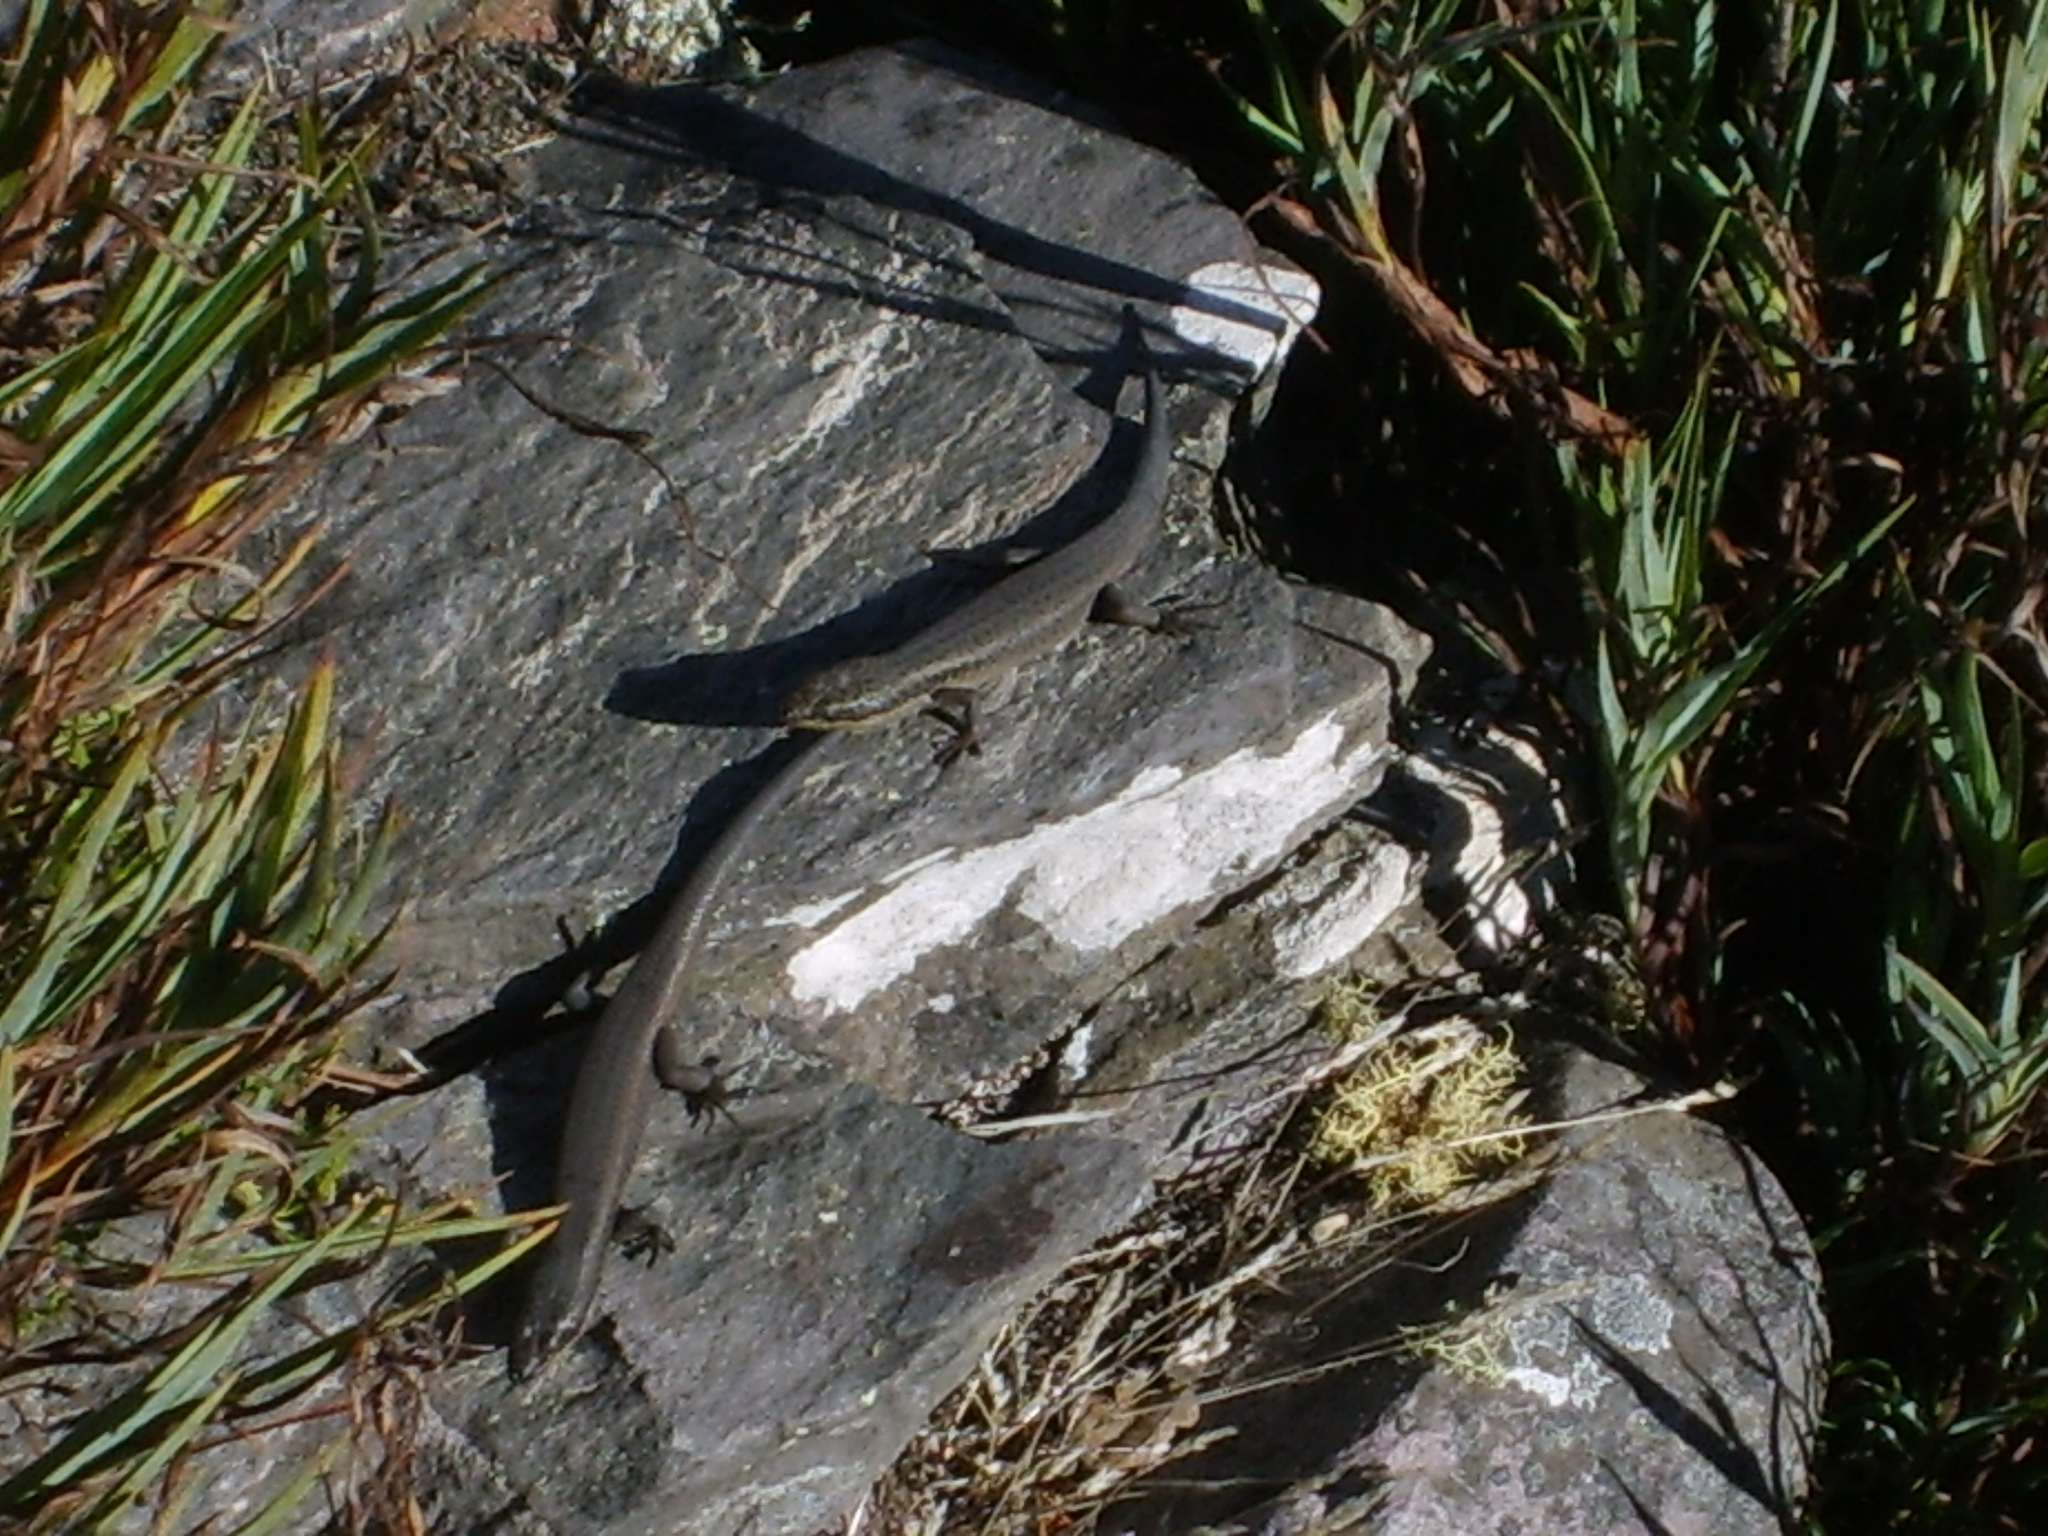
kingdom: Animalia
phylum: Chordata
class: Squamata
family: Scincidae
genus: Egernia
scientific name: Egernia napoleonis
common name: South-western crevice skink
